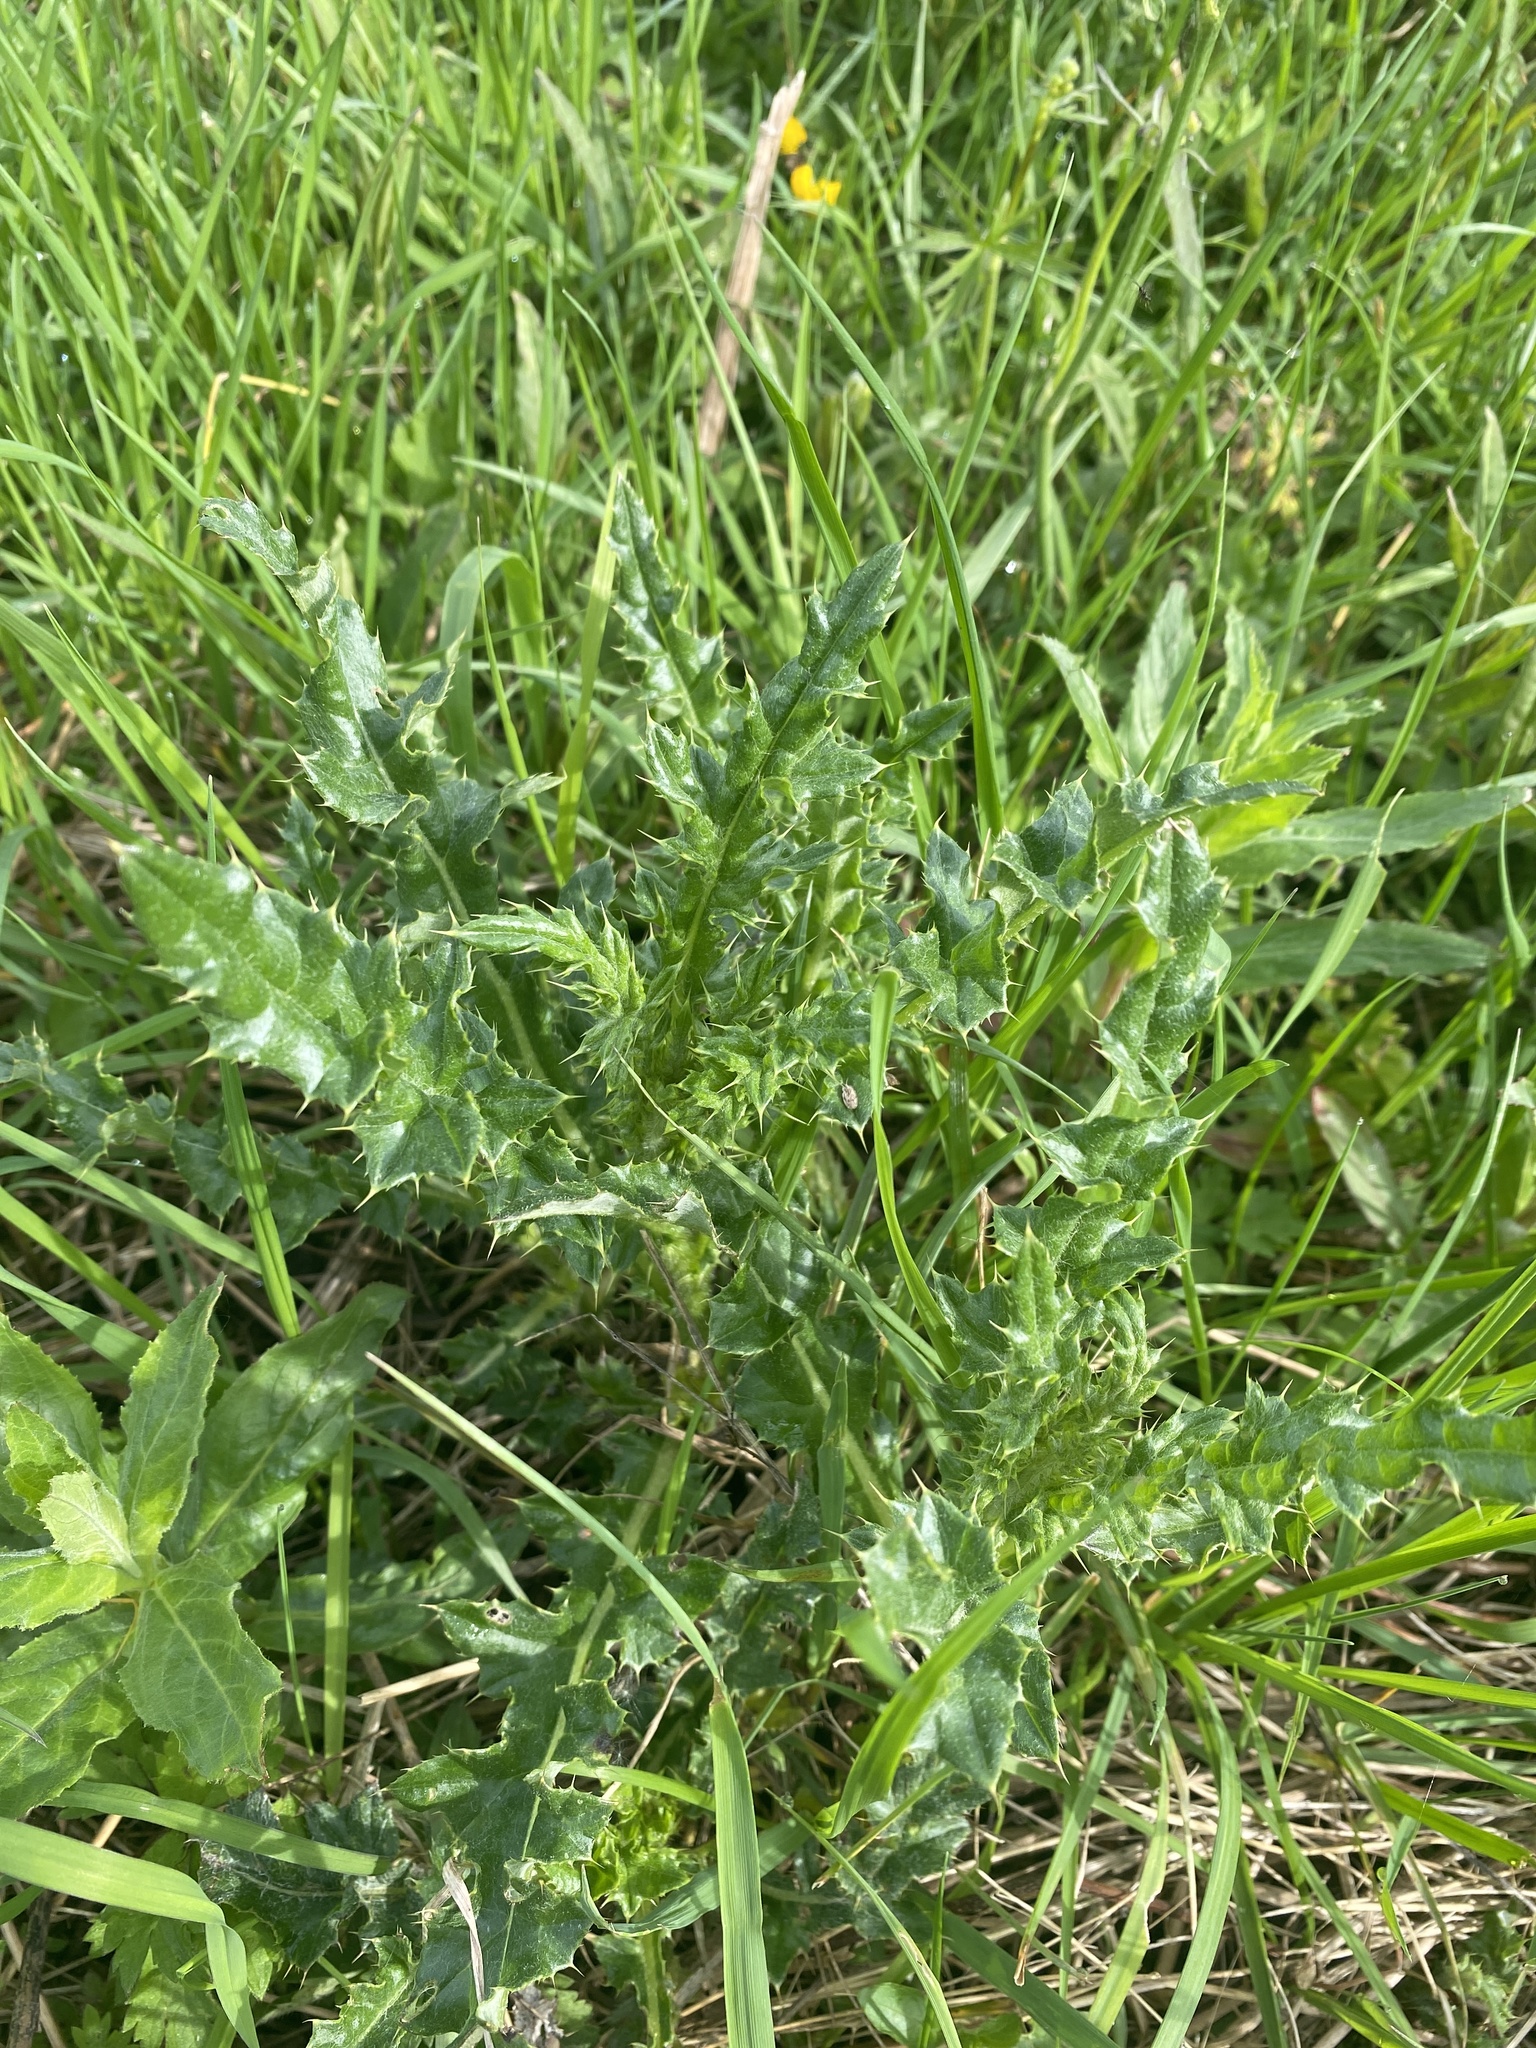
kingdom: Plantae
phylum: Tracheophyta
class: Magnoliopsida
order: Asterales
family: Asteraceae
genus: Cirsium
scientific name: Cirsium arvense
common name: Creeping thistle
